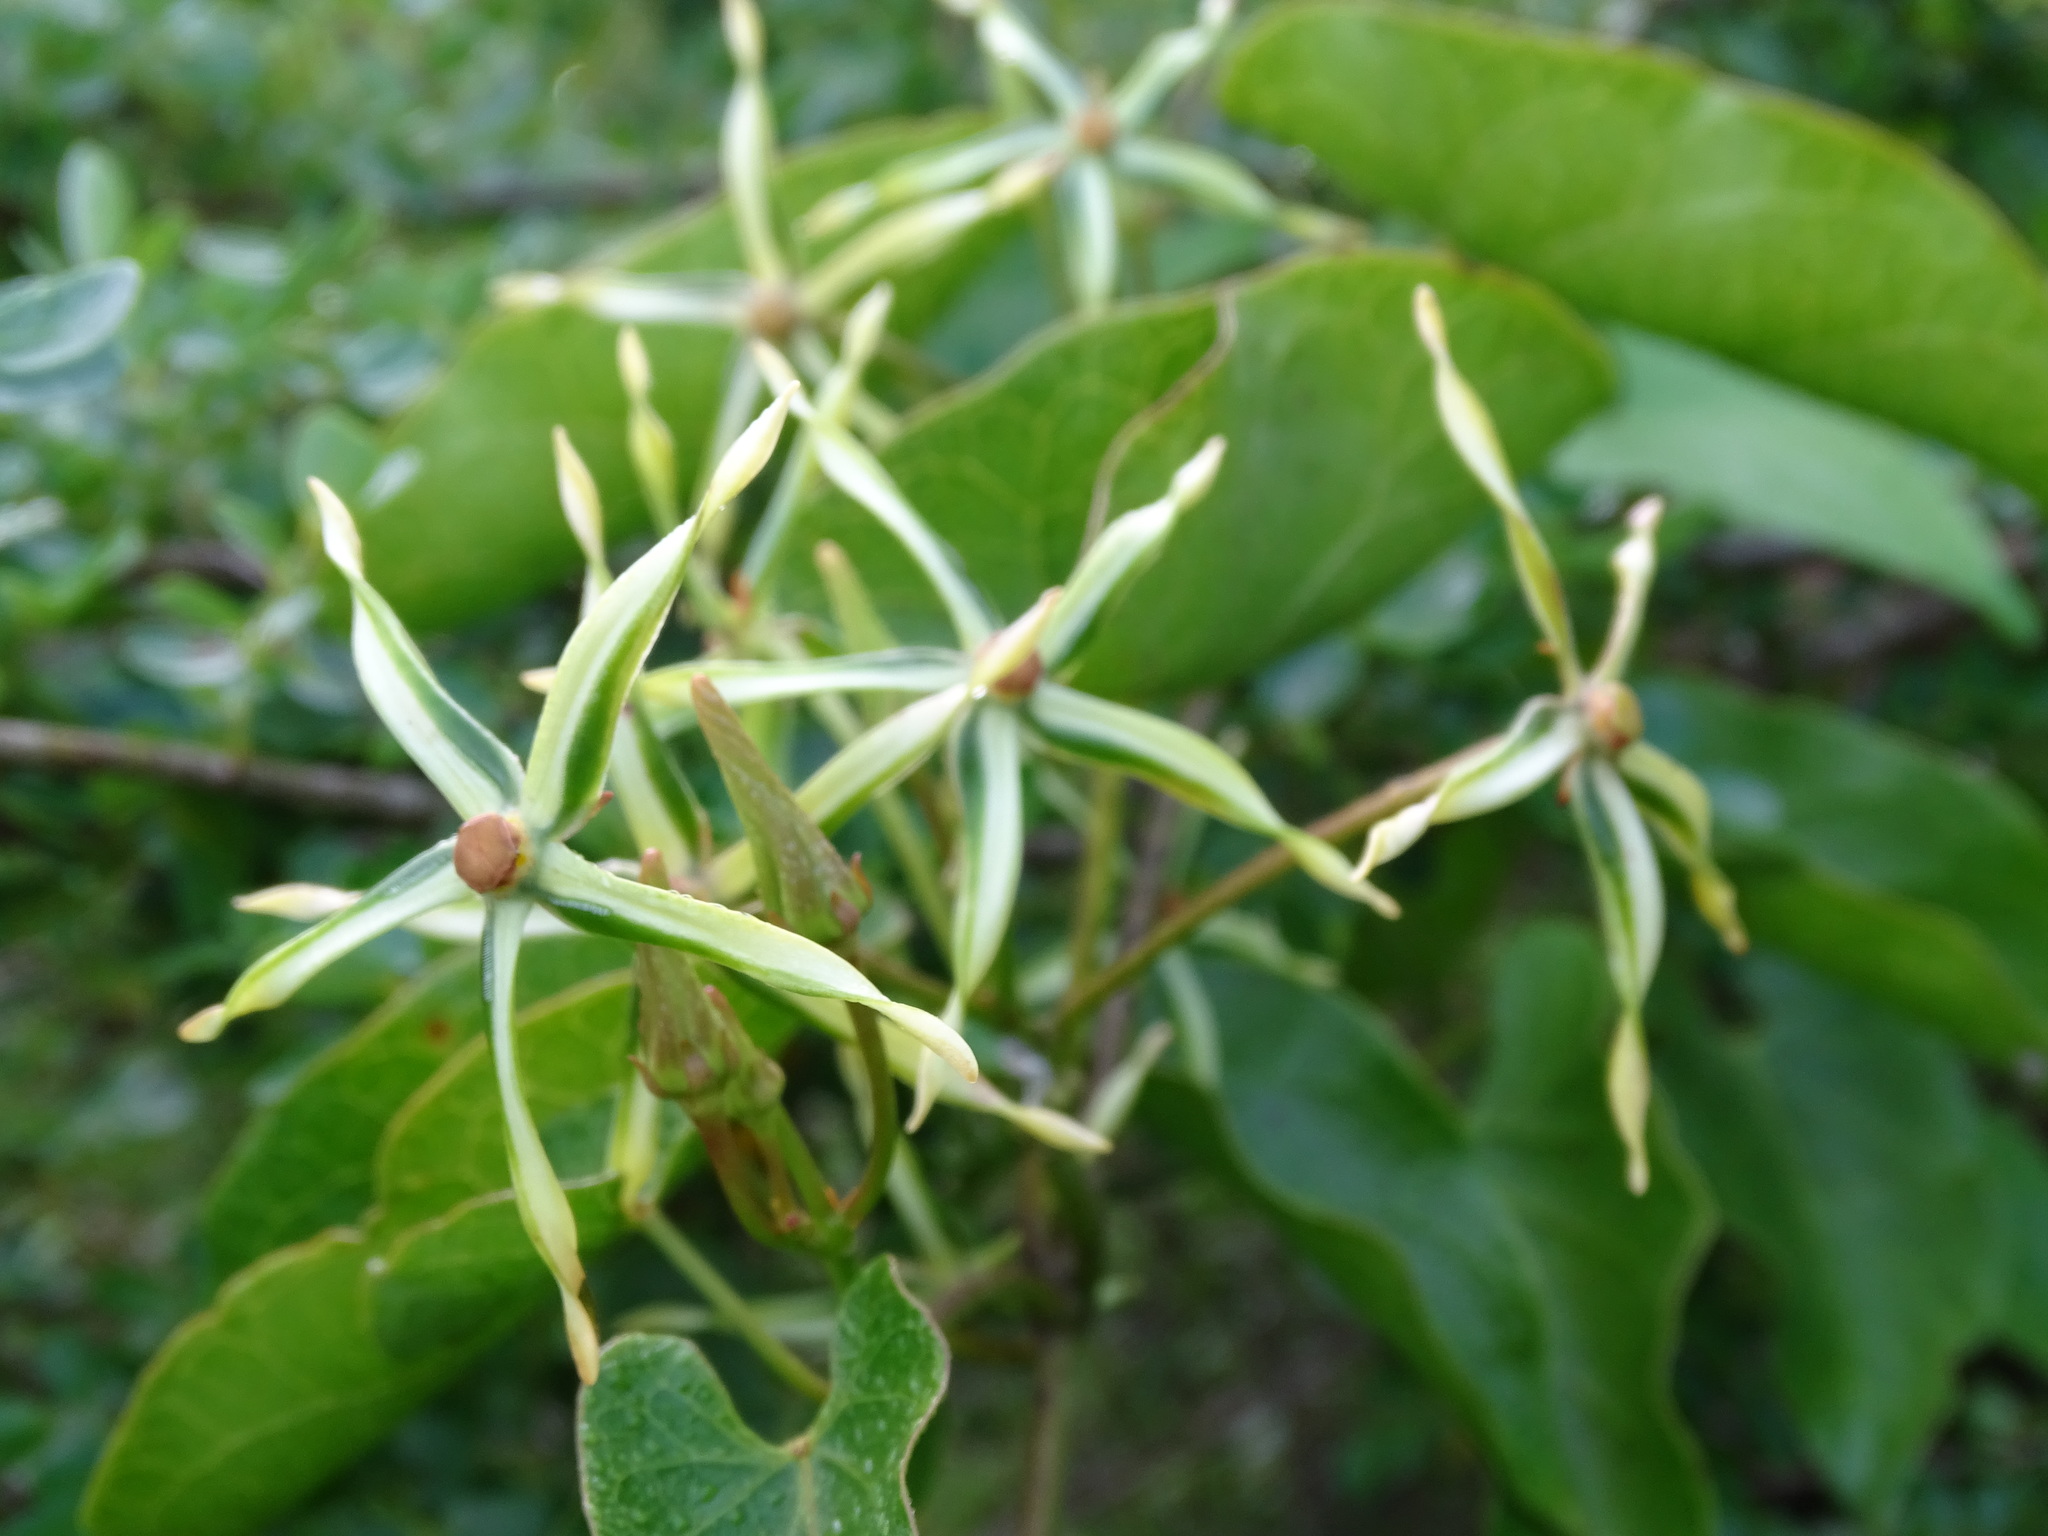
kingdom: Plantae
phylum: Tracheophyta
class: Magnoliopsida
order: Gentianales
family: Apocynaceae
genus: Gonolobus
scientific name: Gonolobus cteniophorus
